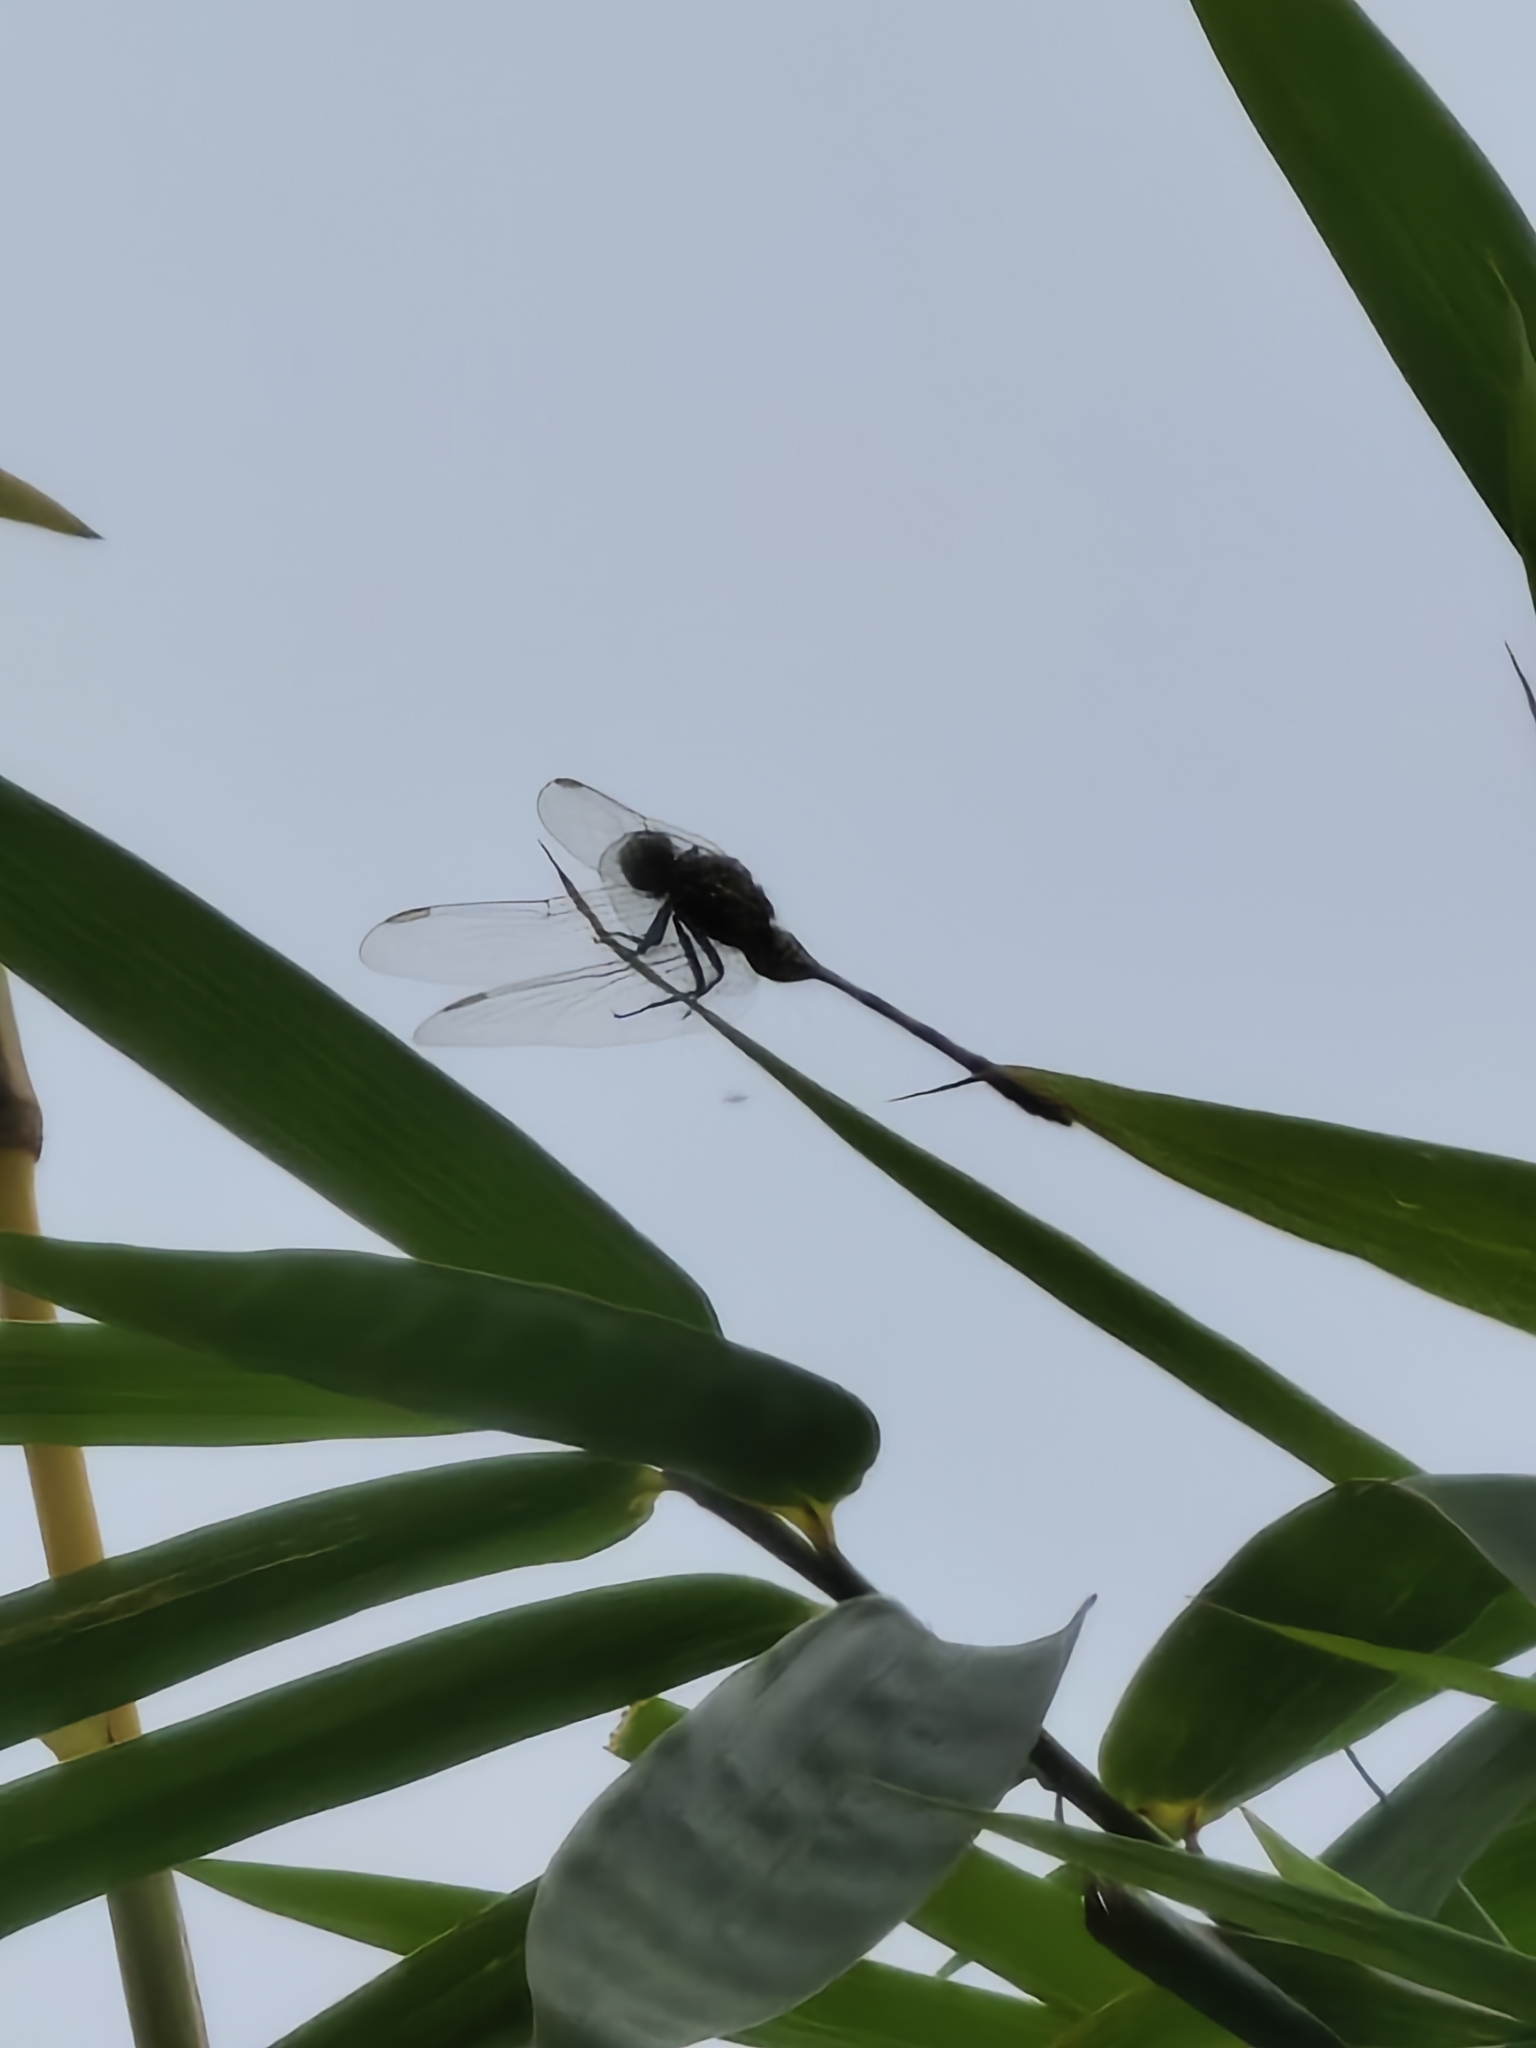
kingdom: Animalia
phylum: Arthropoda
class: Insecta
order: Odonata
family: Libellulidae
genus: Orthetrum
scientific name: Orthetrum sabina
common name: Slender skimmer
